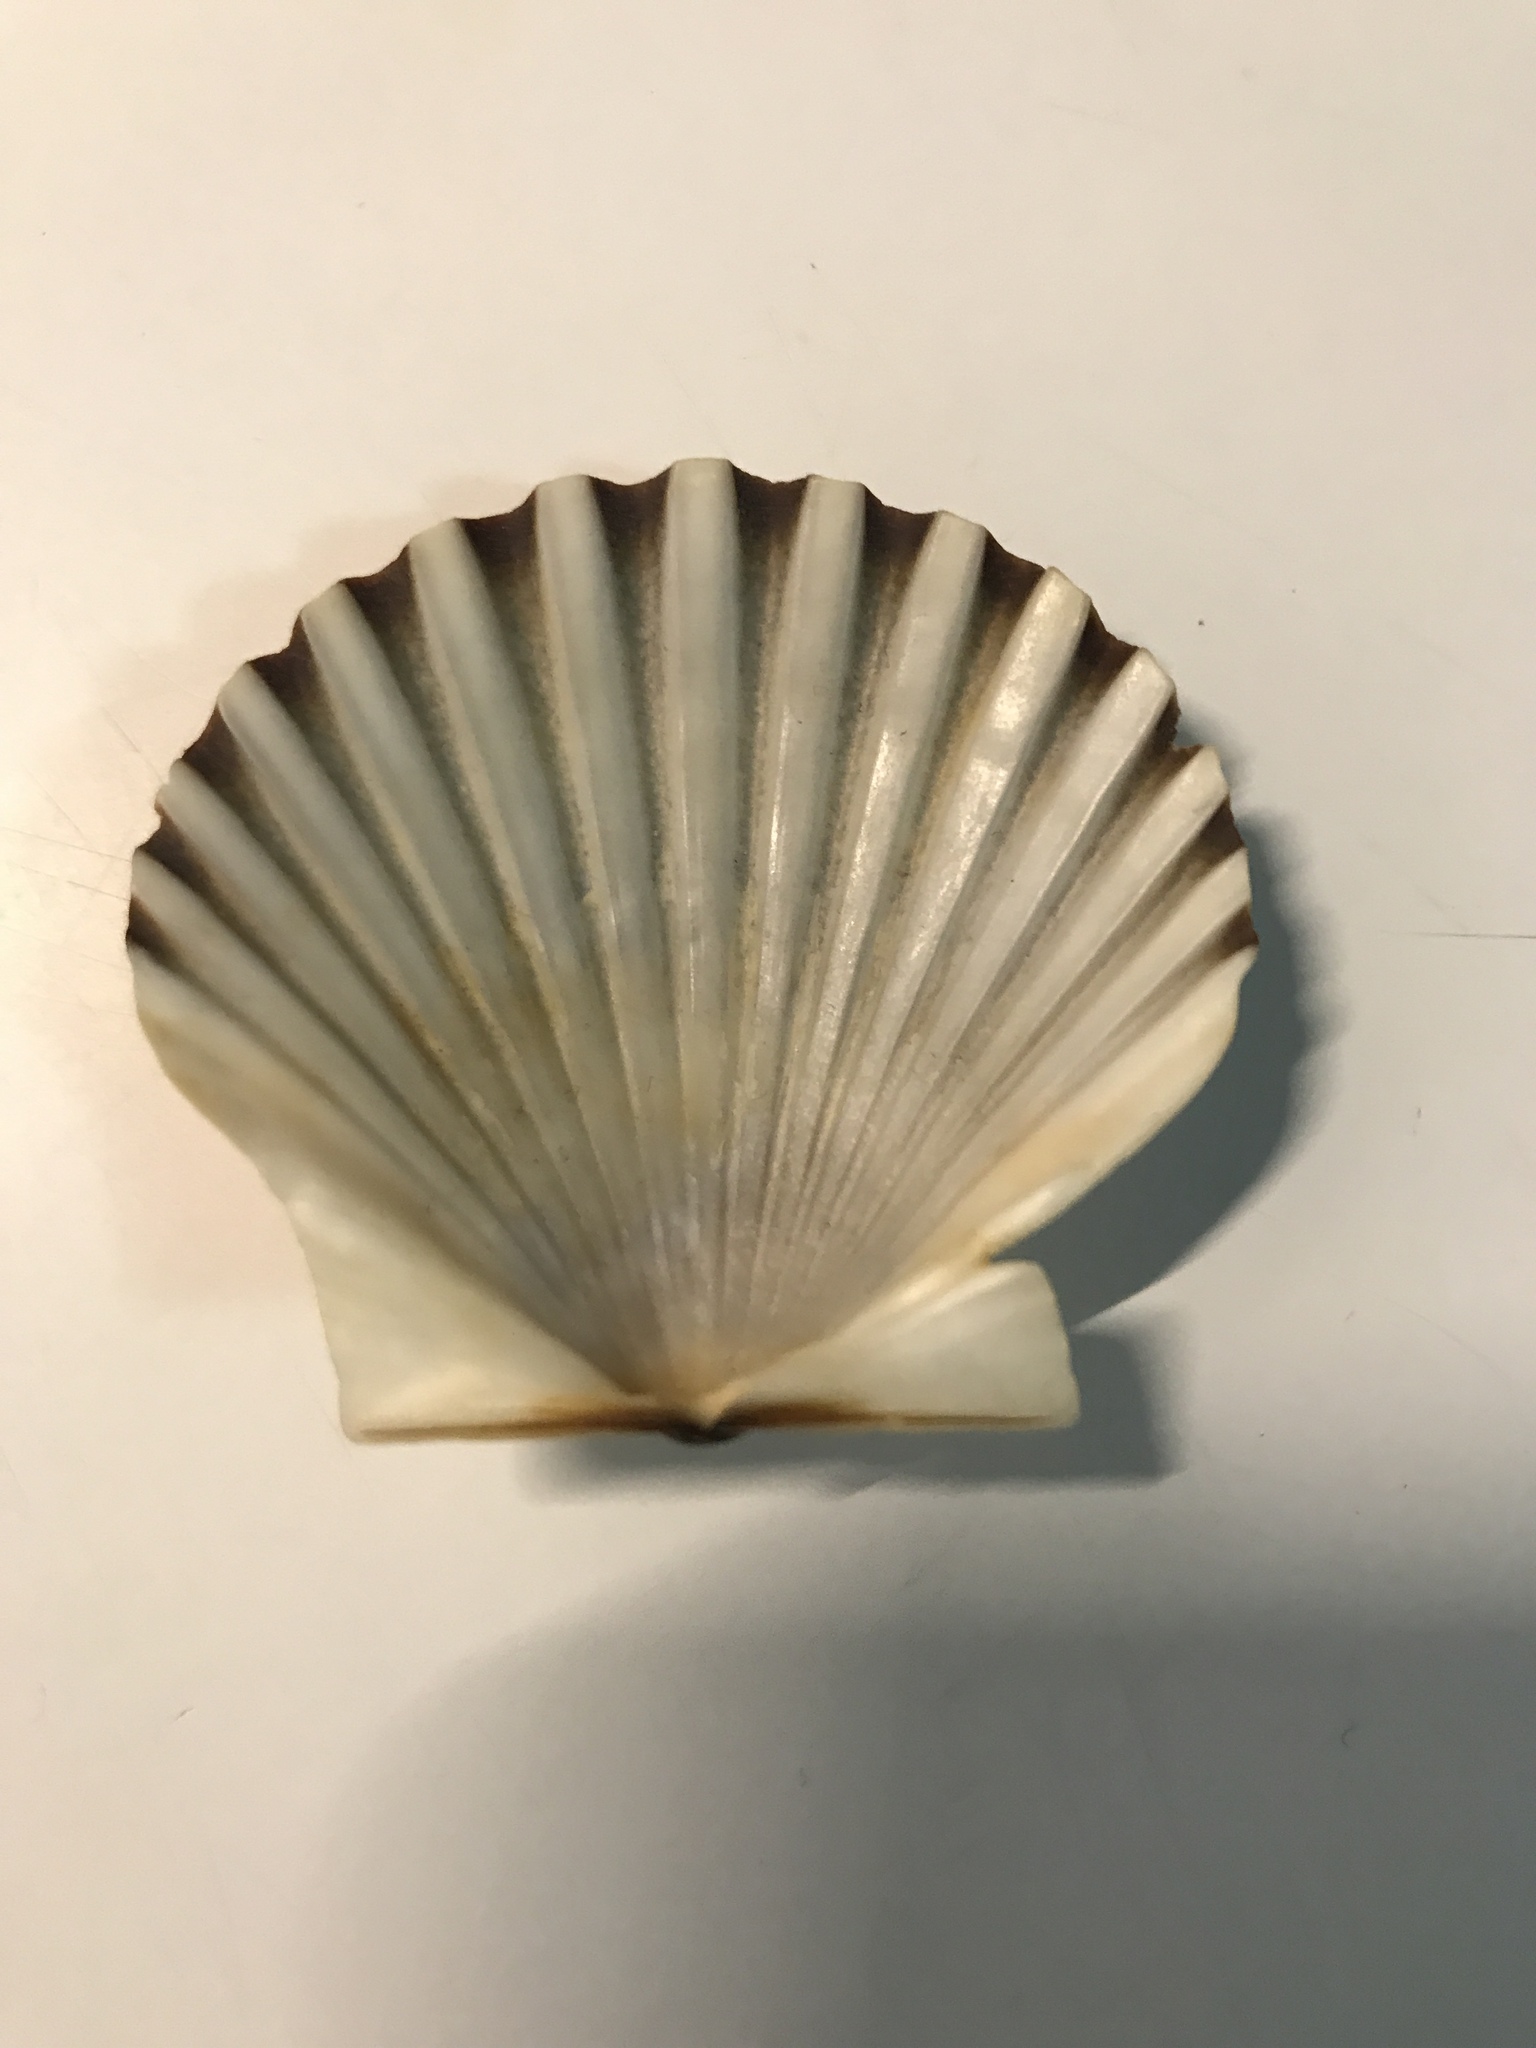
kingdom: Animalia
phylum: Mollusca
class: Bivalvia
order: Pectinida
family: Pectinidae
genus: Argopecten
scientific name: Argopecten irradians
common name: Atlantic bay scallop
